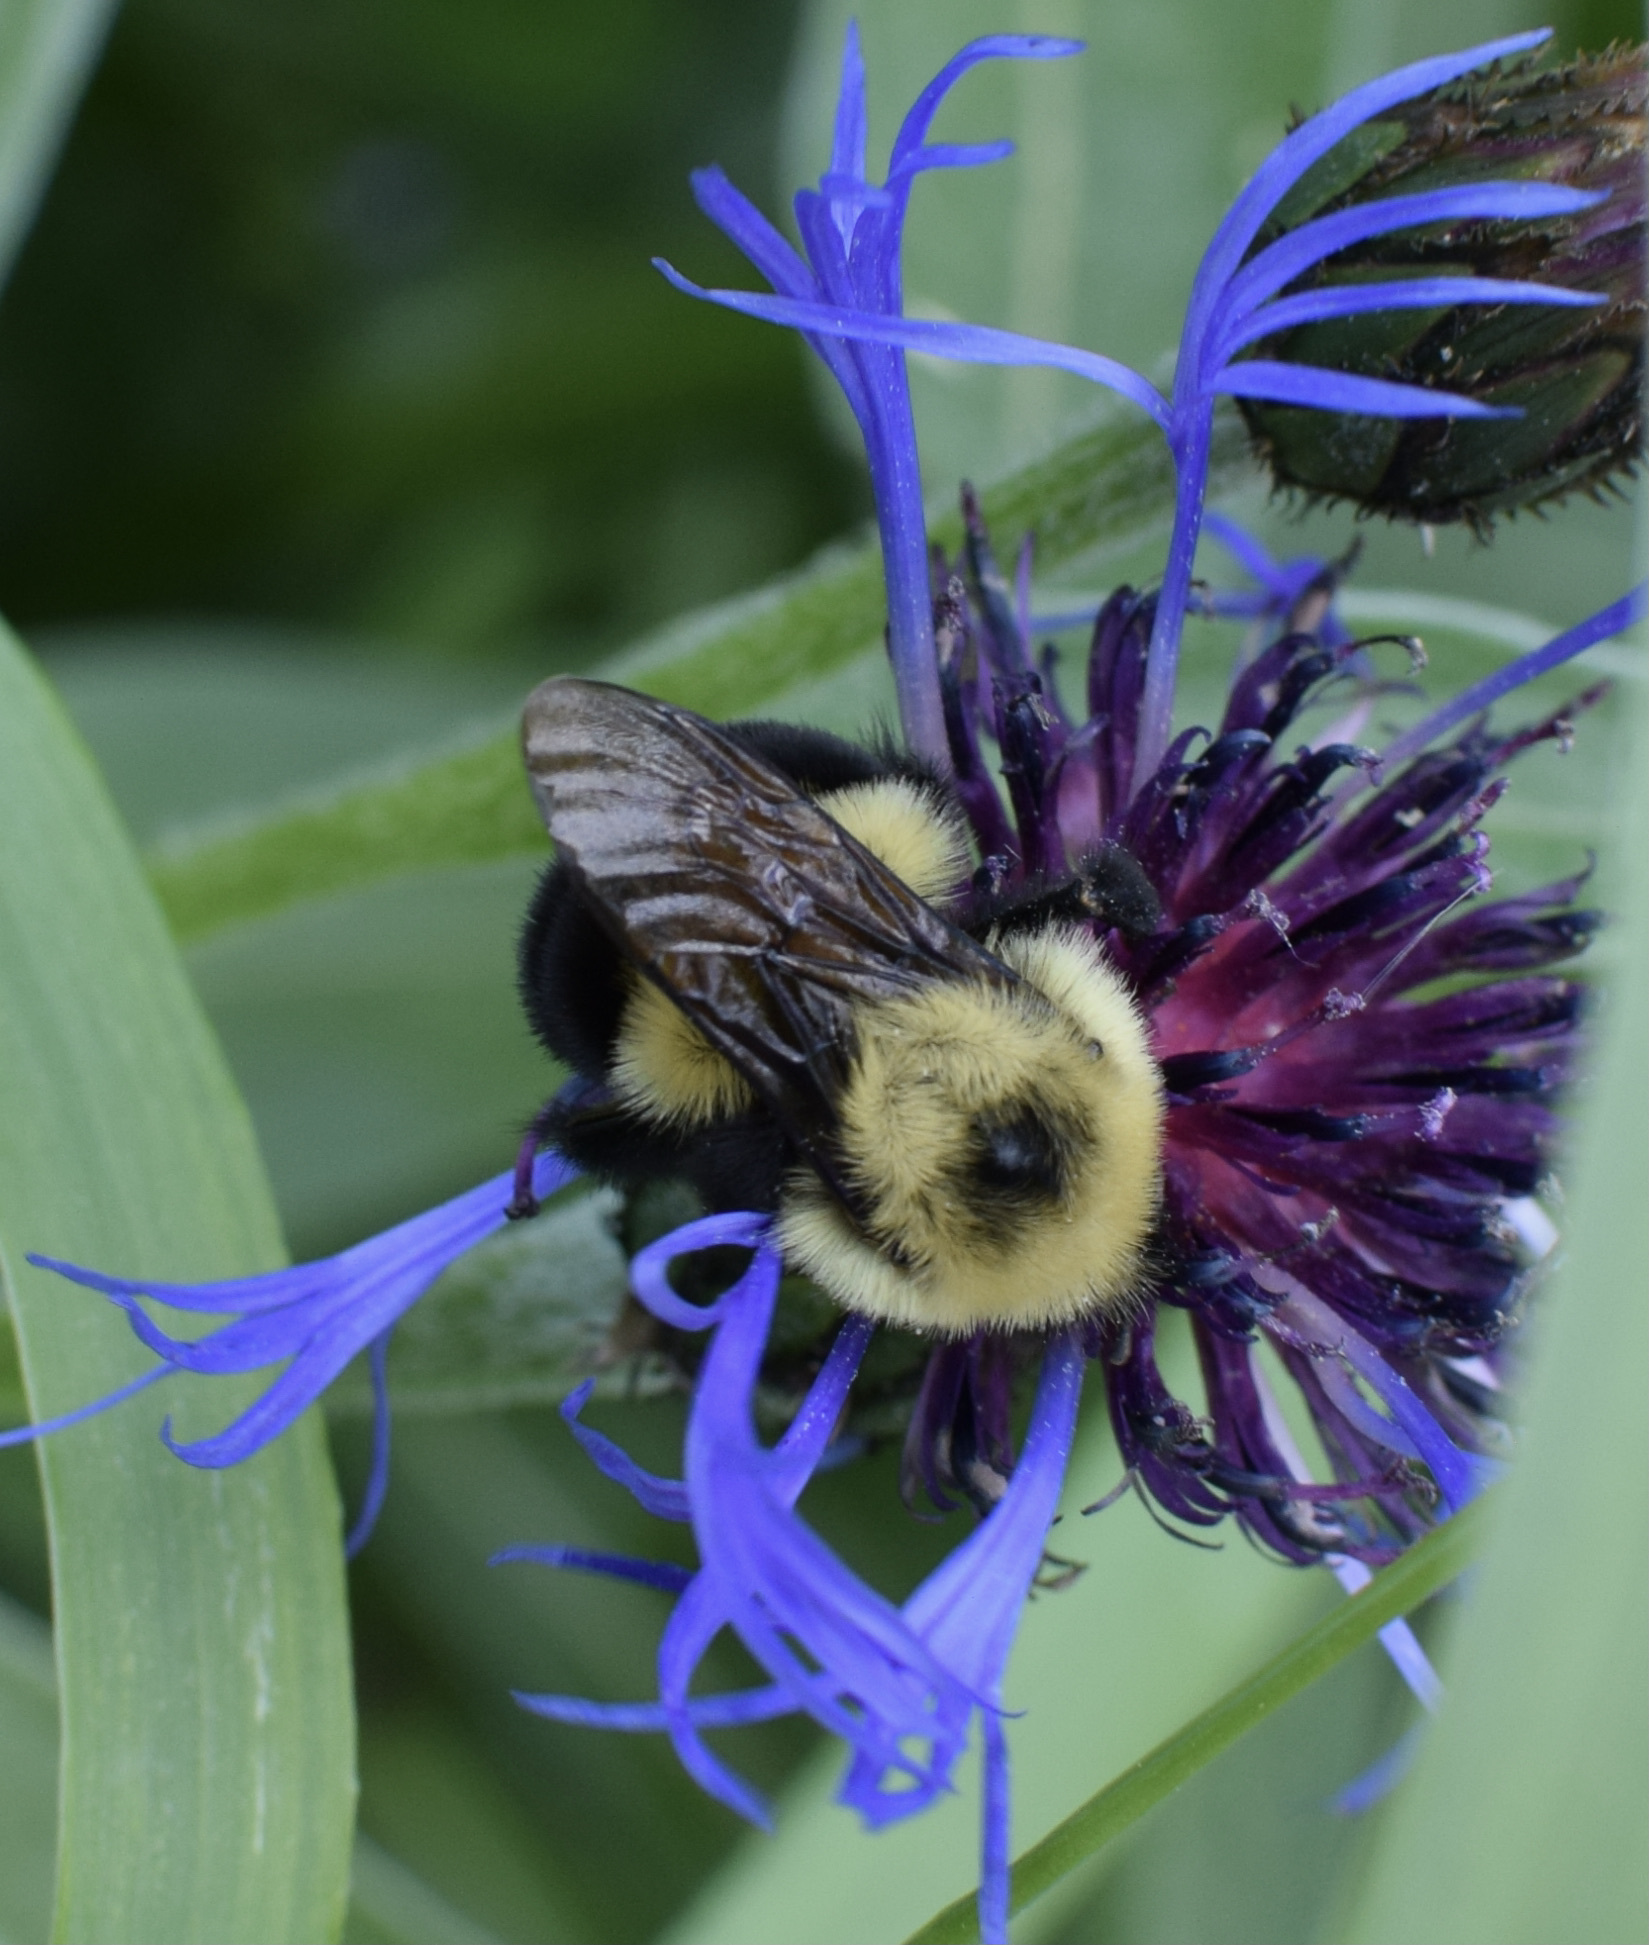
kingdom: Animalia
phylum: Arthropoda
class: Insecta
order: Hymenoptera
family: Apidae
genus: Bombus
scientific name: Bombus bimaculatus
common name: Two-spotted bumble bee
